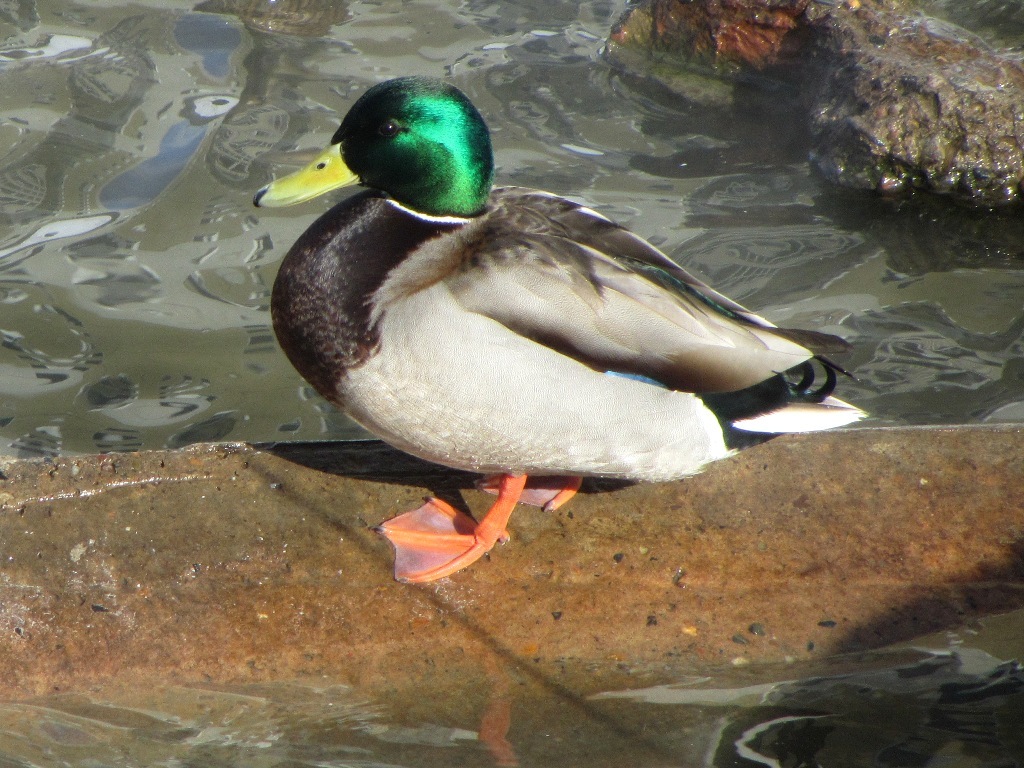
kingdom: Animalia
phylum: Chordata
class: Aves
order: Anseriformes
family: Anatidae
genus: Anas
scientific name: Anas platyrhynchos
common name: Mallard
